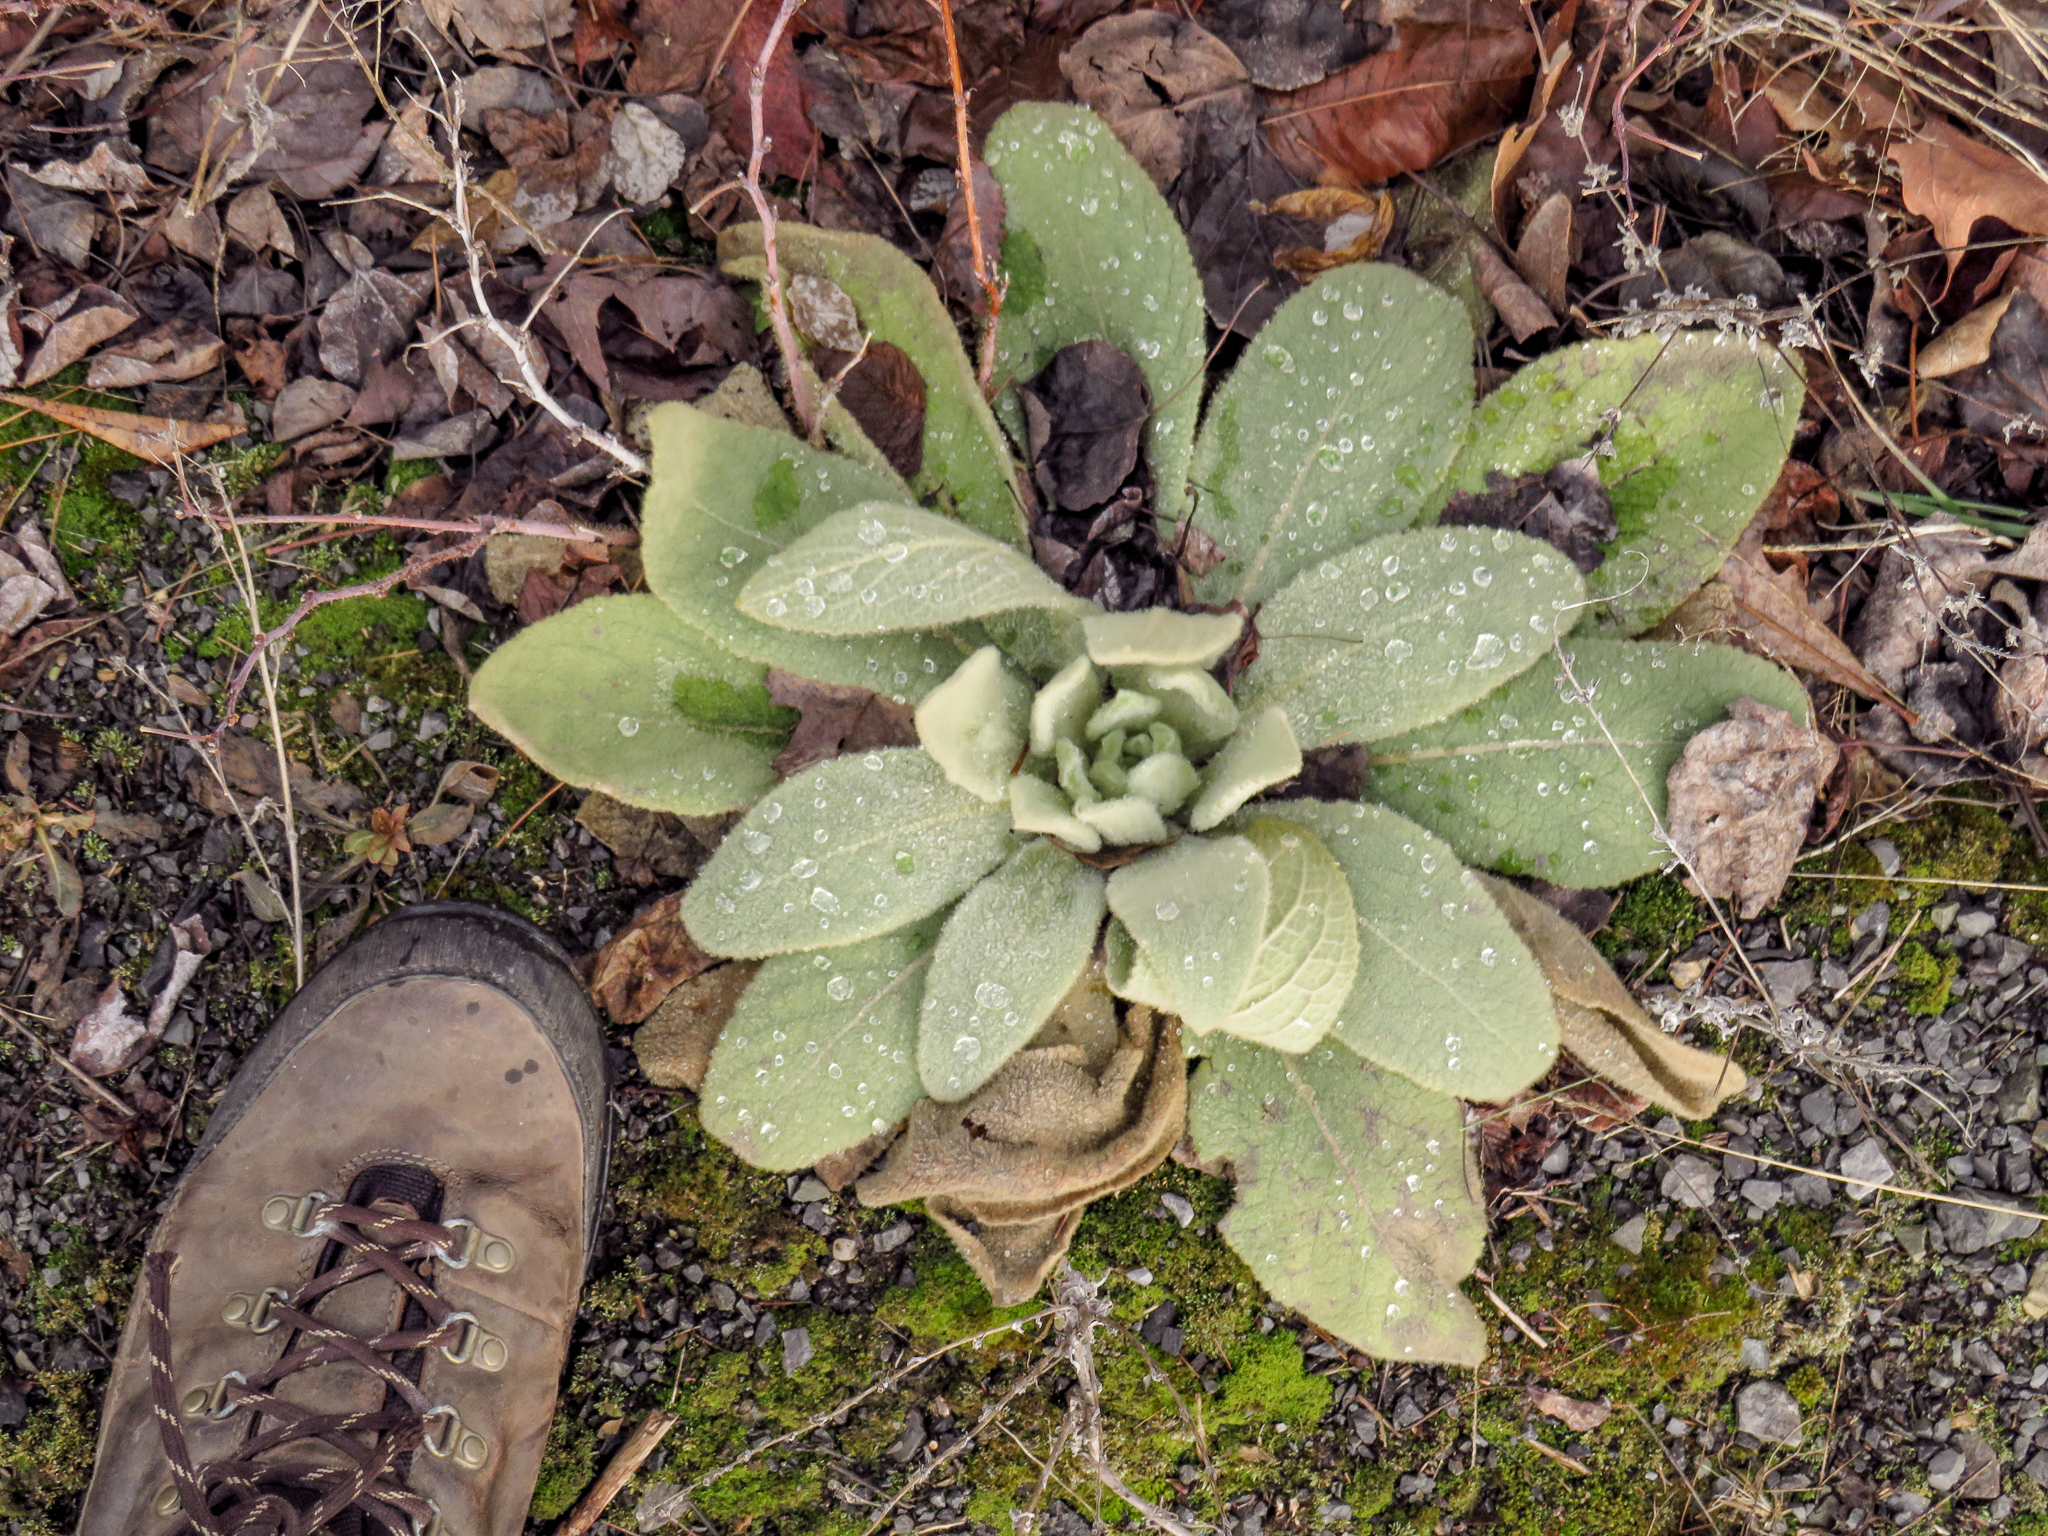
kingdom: Plantae
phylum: Tracheophyta
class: Magnoliopsida
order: Lamiales
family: Scrophulariaceae
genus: Verbascum
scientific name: Verbascum thapsus
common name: Common mullein
